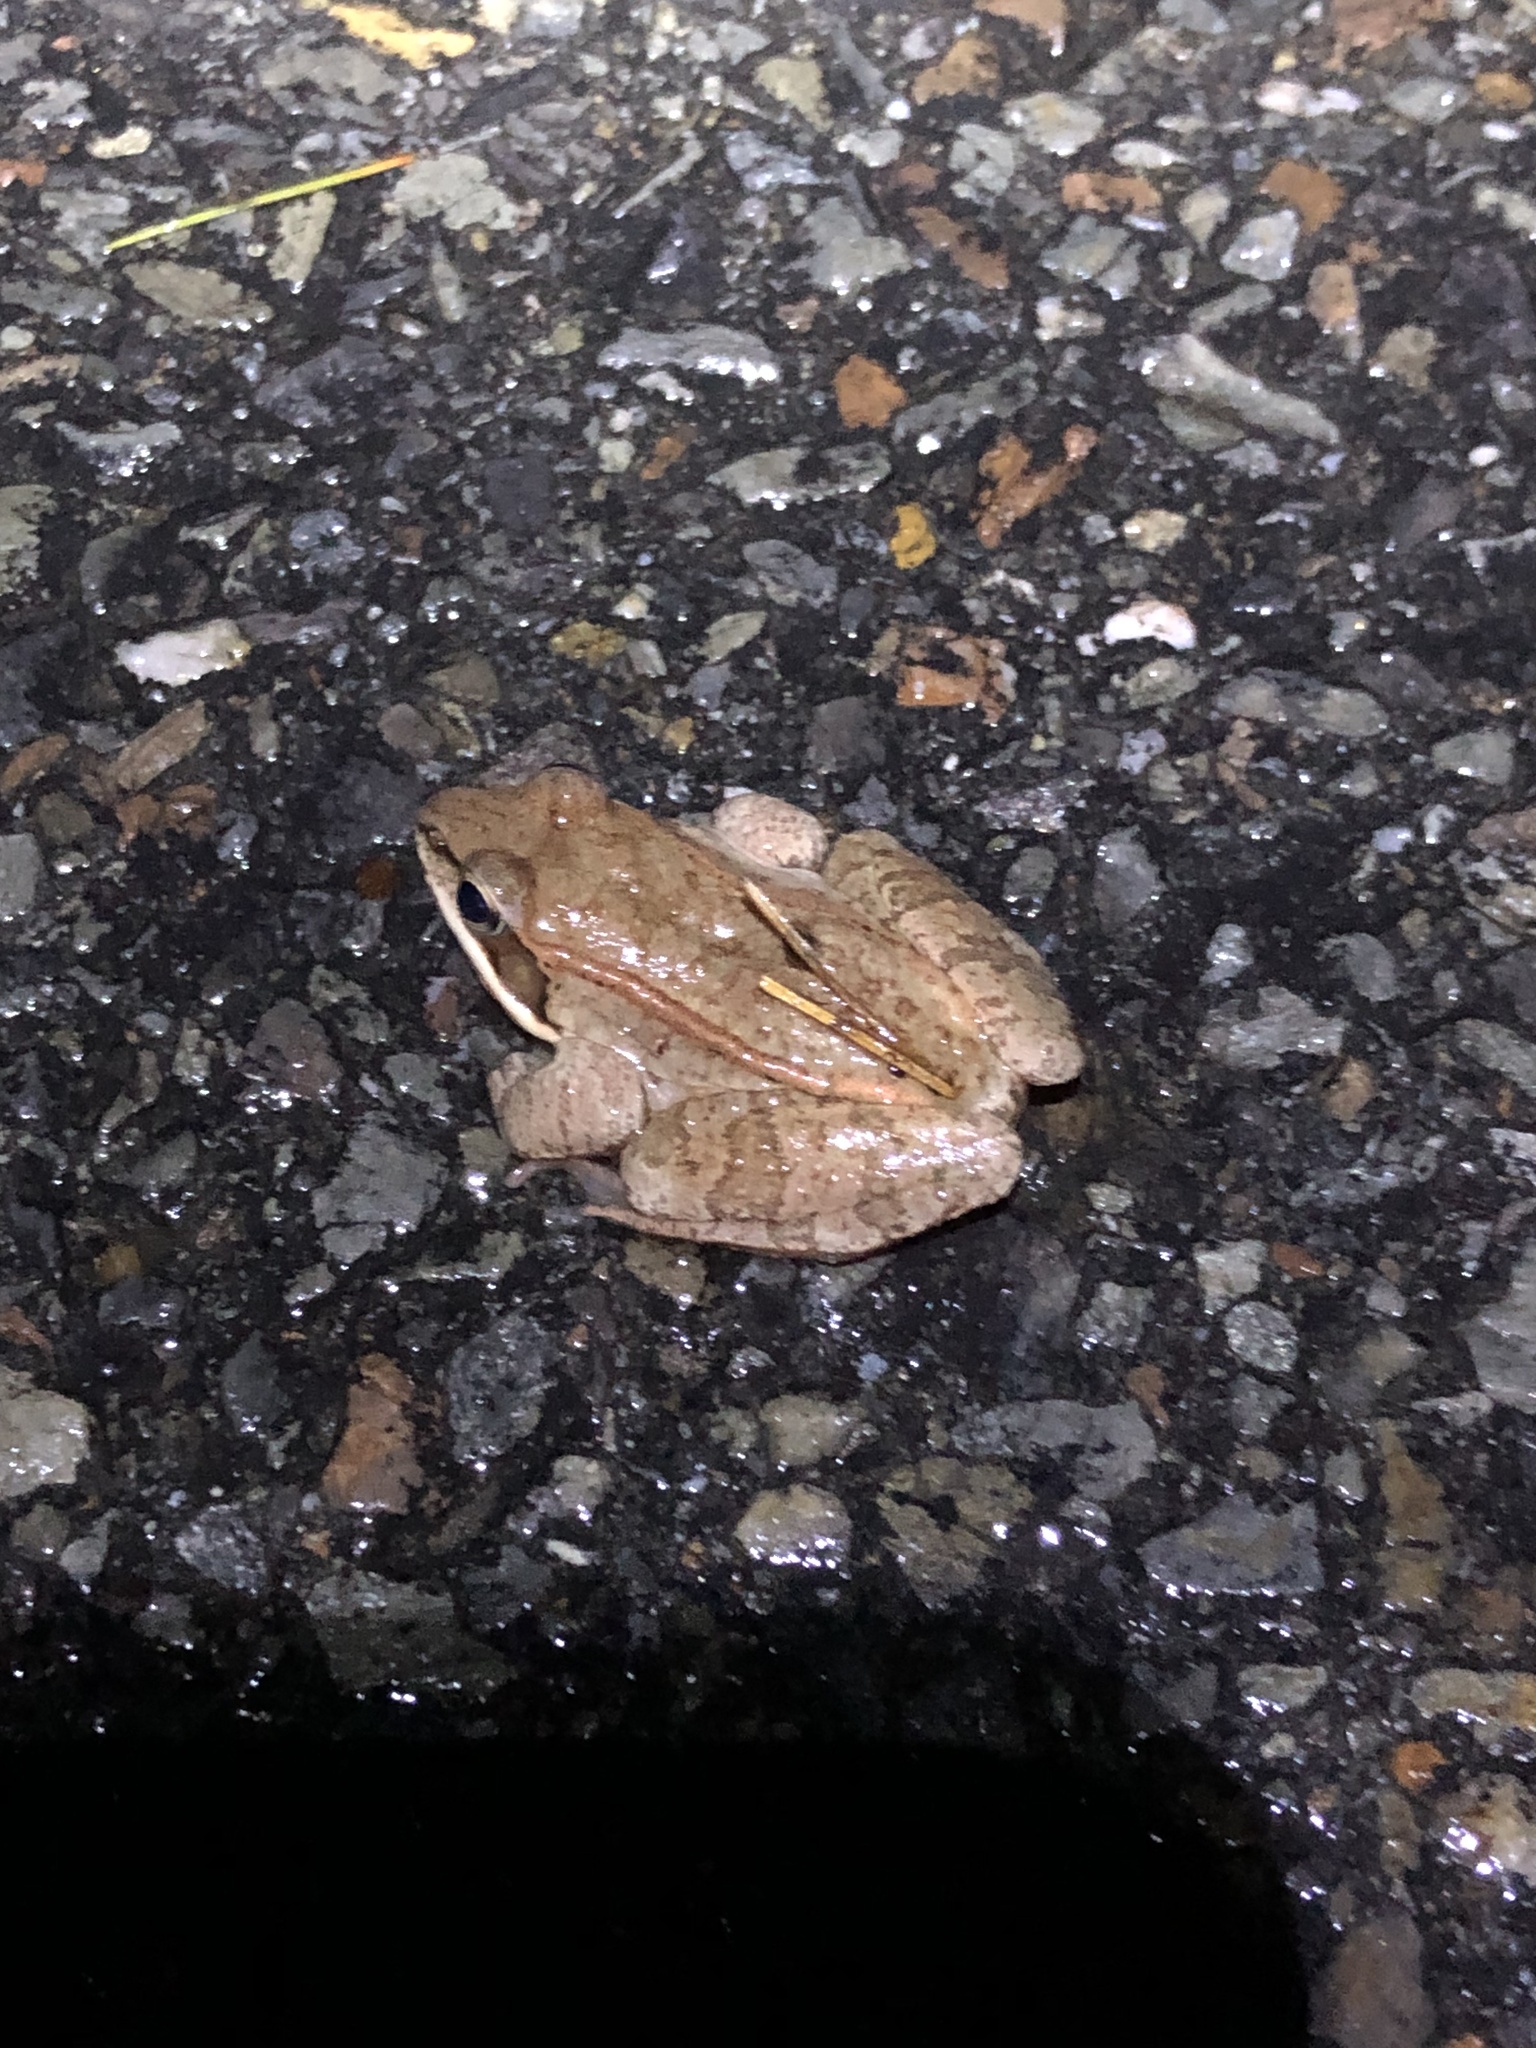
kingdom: Animalia
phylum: Chordata
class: Amphibia
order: Anura
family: Ranidae
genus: Lithobates
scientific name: Lithobates sylvaticus
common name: Wood frog
